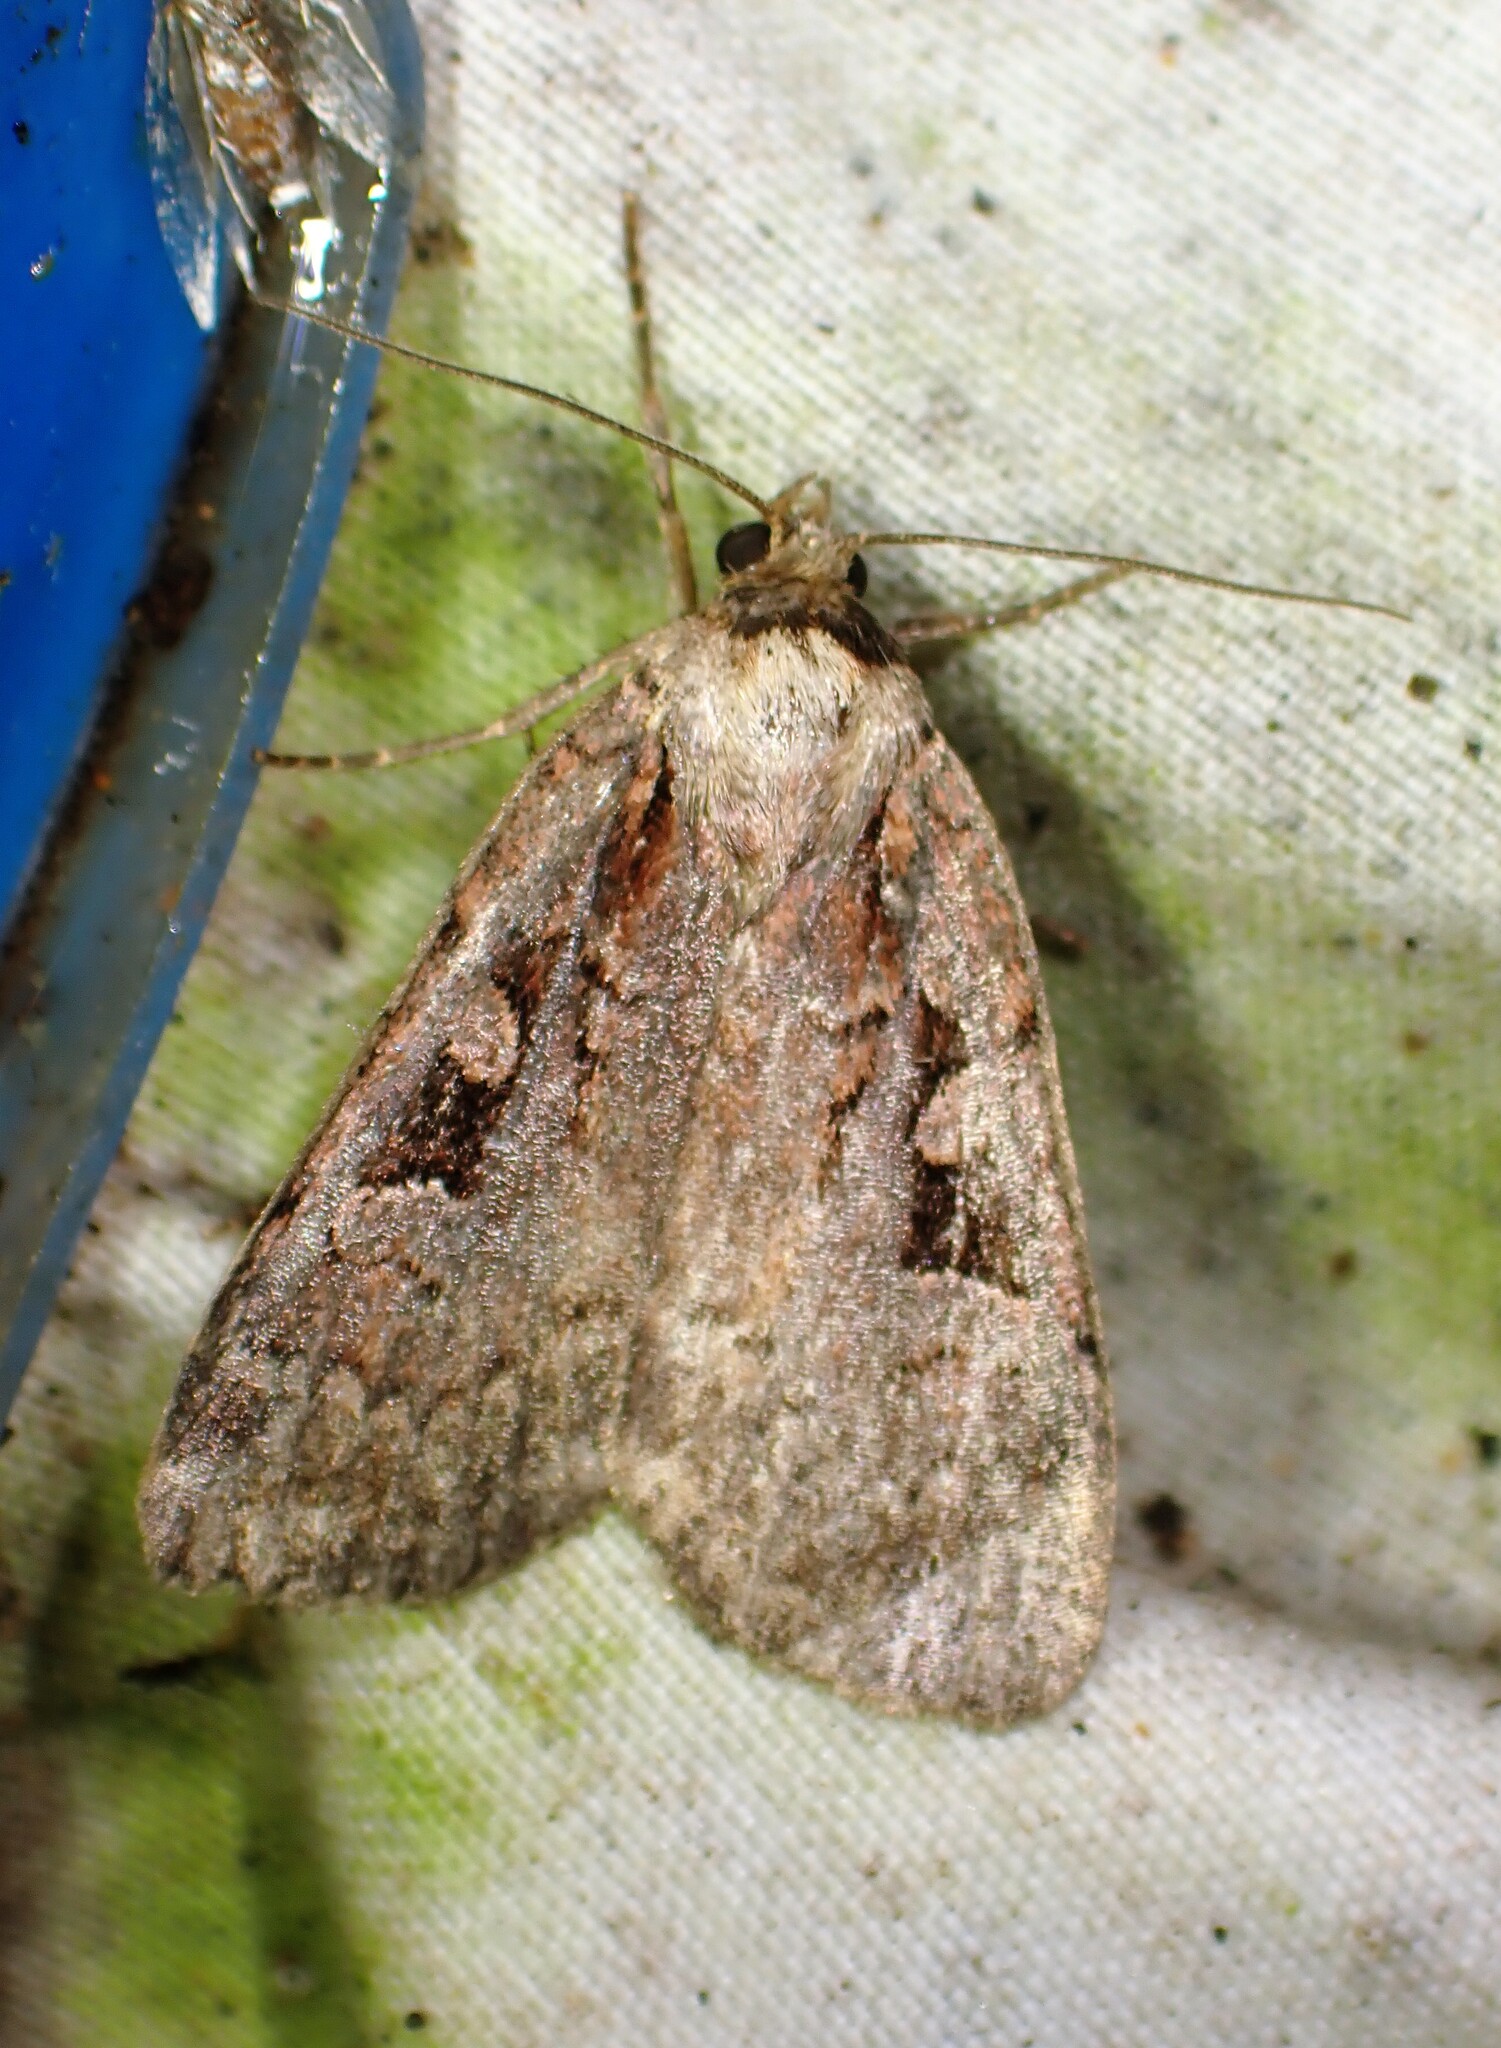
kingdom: Animalia
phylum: Arthropoda
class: Insecta
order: Lepidoptera
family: Noctuidae
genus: Eueretagrotis
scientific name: Eueretagrotis perattentus
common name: Two-spot dart moth
